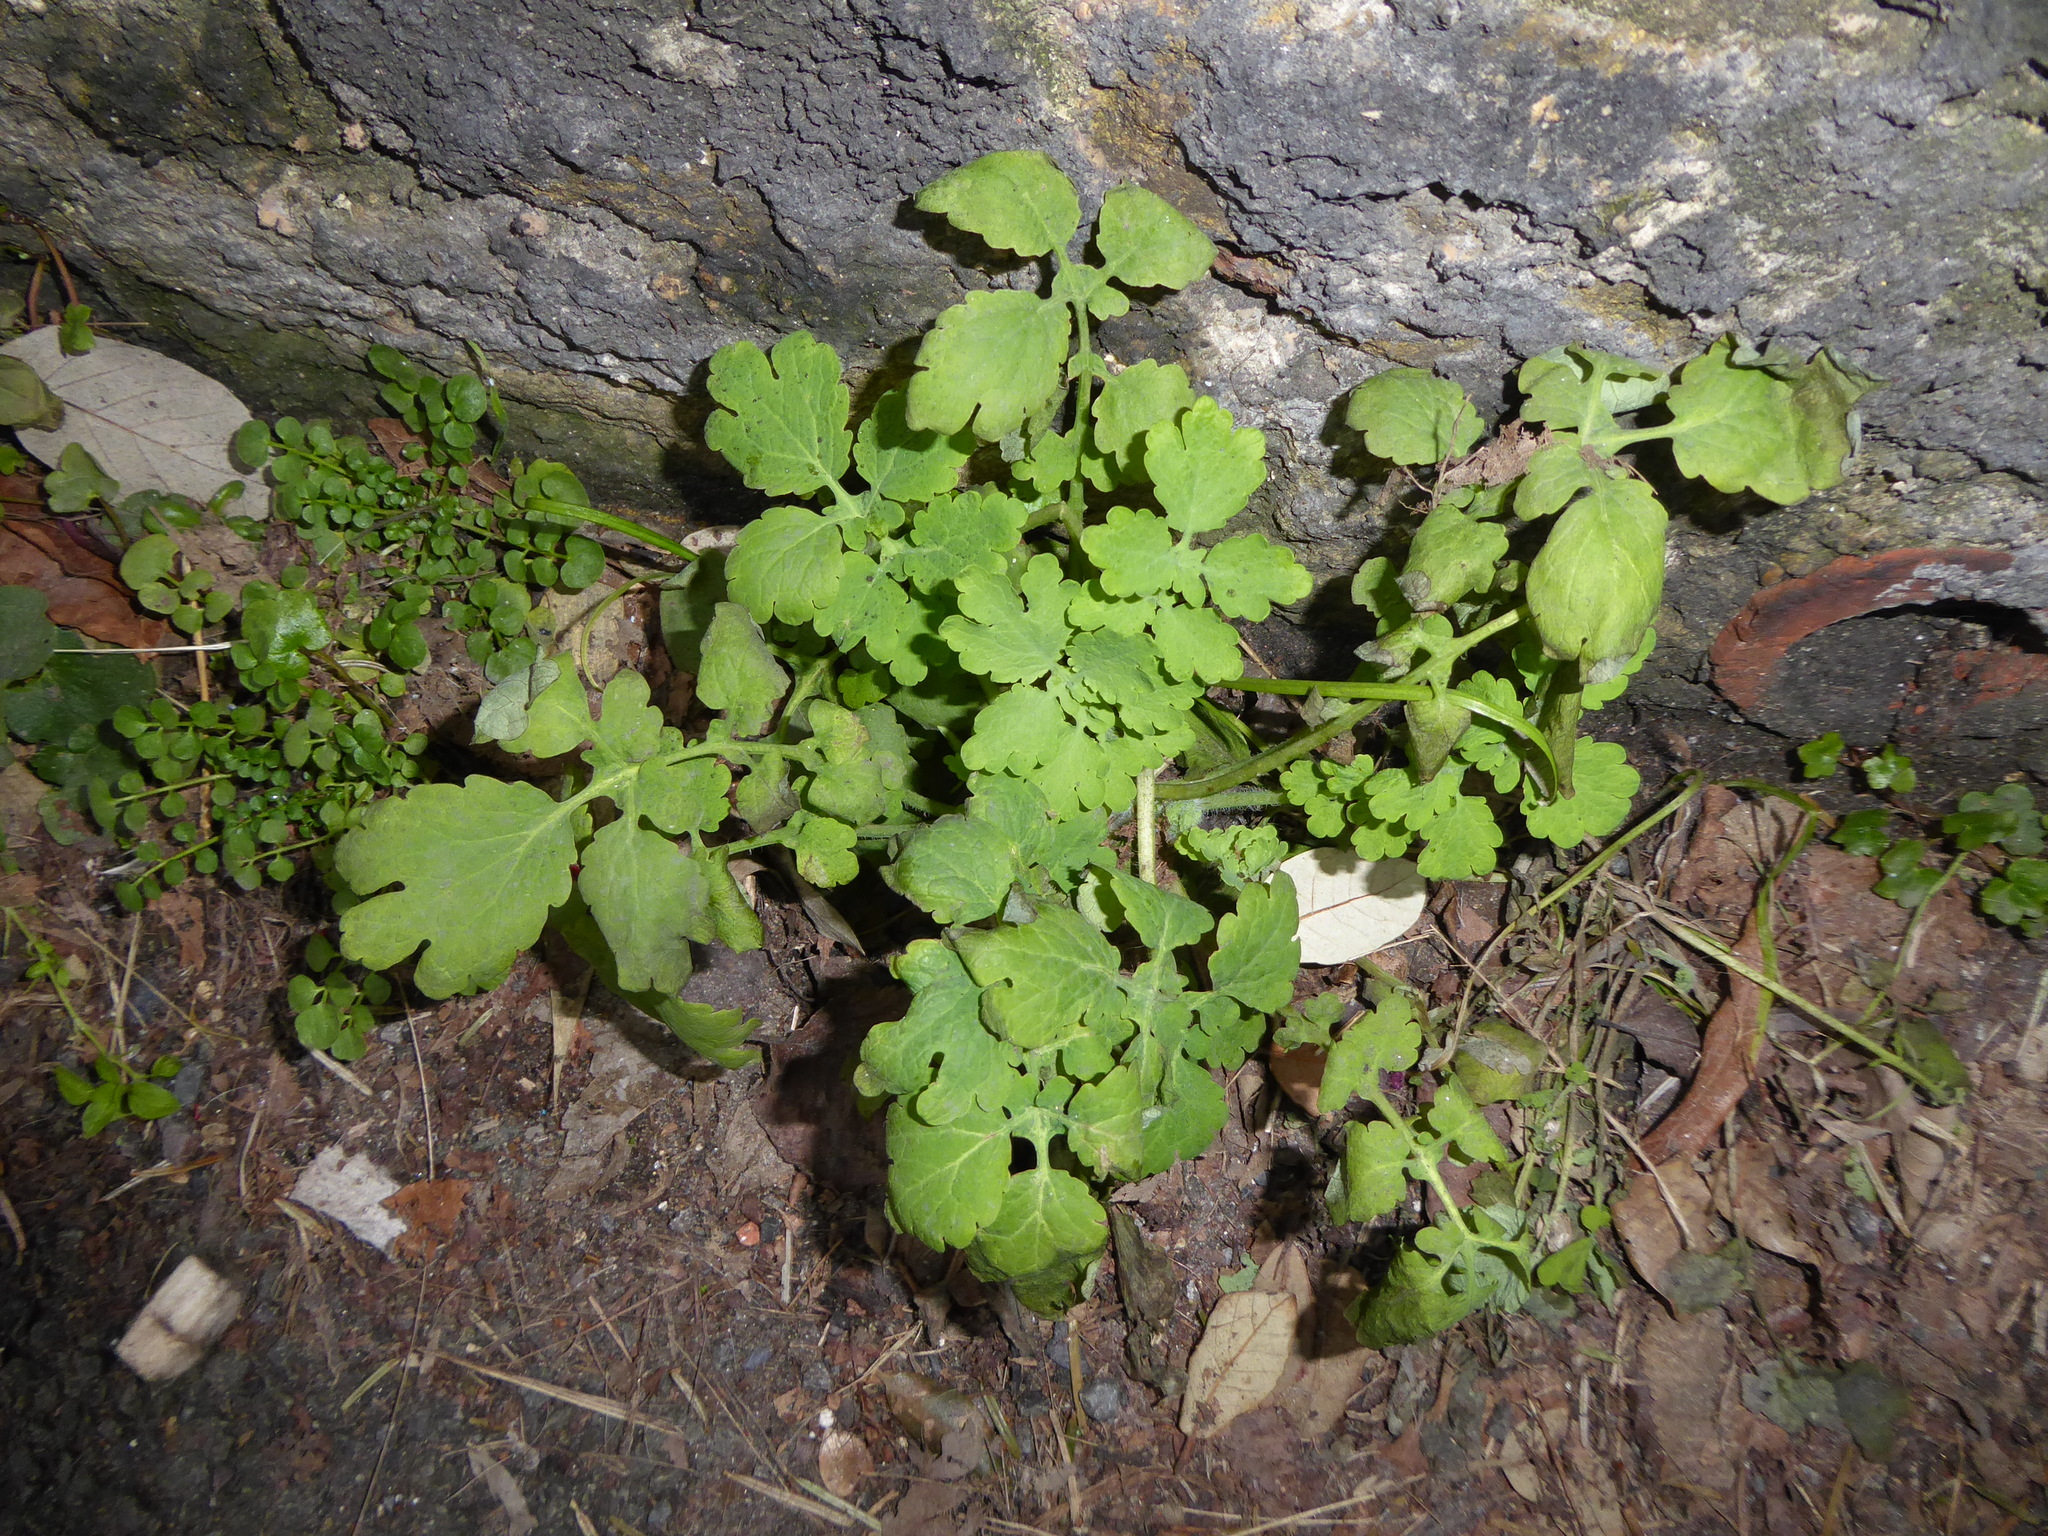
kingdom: Plantae
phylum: Tracheophyta
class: Magnoliopsida
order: Ranunculales
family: Papaveraceae
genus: Chelidonium
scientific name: Chelidonium majus
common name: Greater celandine
